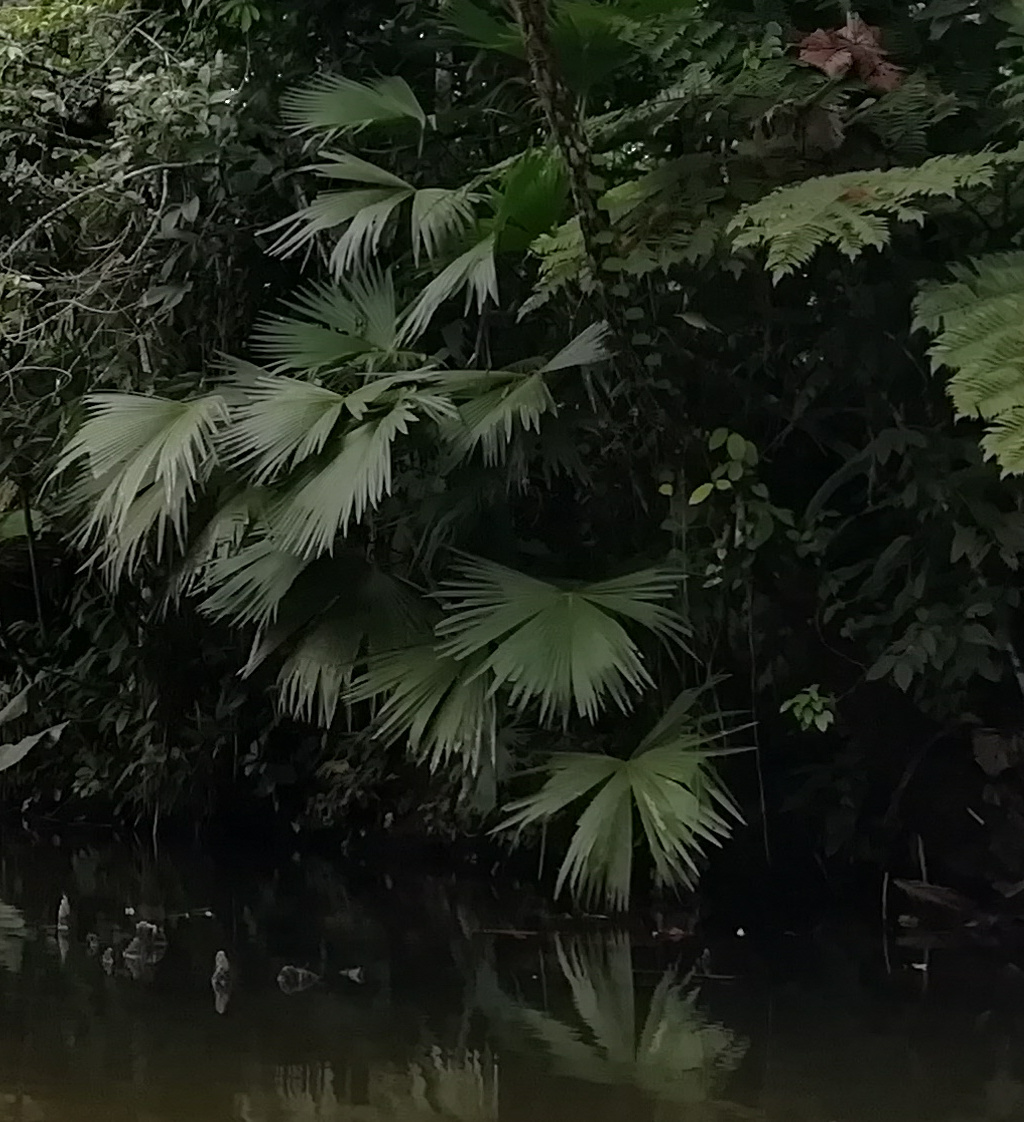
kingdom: Plantae
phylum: Tracheophyta
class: Liliopsida
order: Pandanales
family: Cyclanthaceae
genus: Carludovica
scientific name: Carludovica palmata
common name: Panama hat plant
